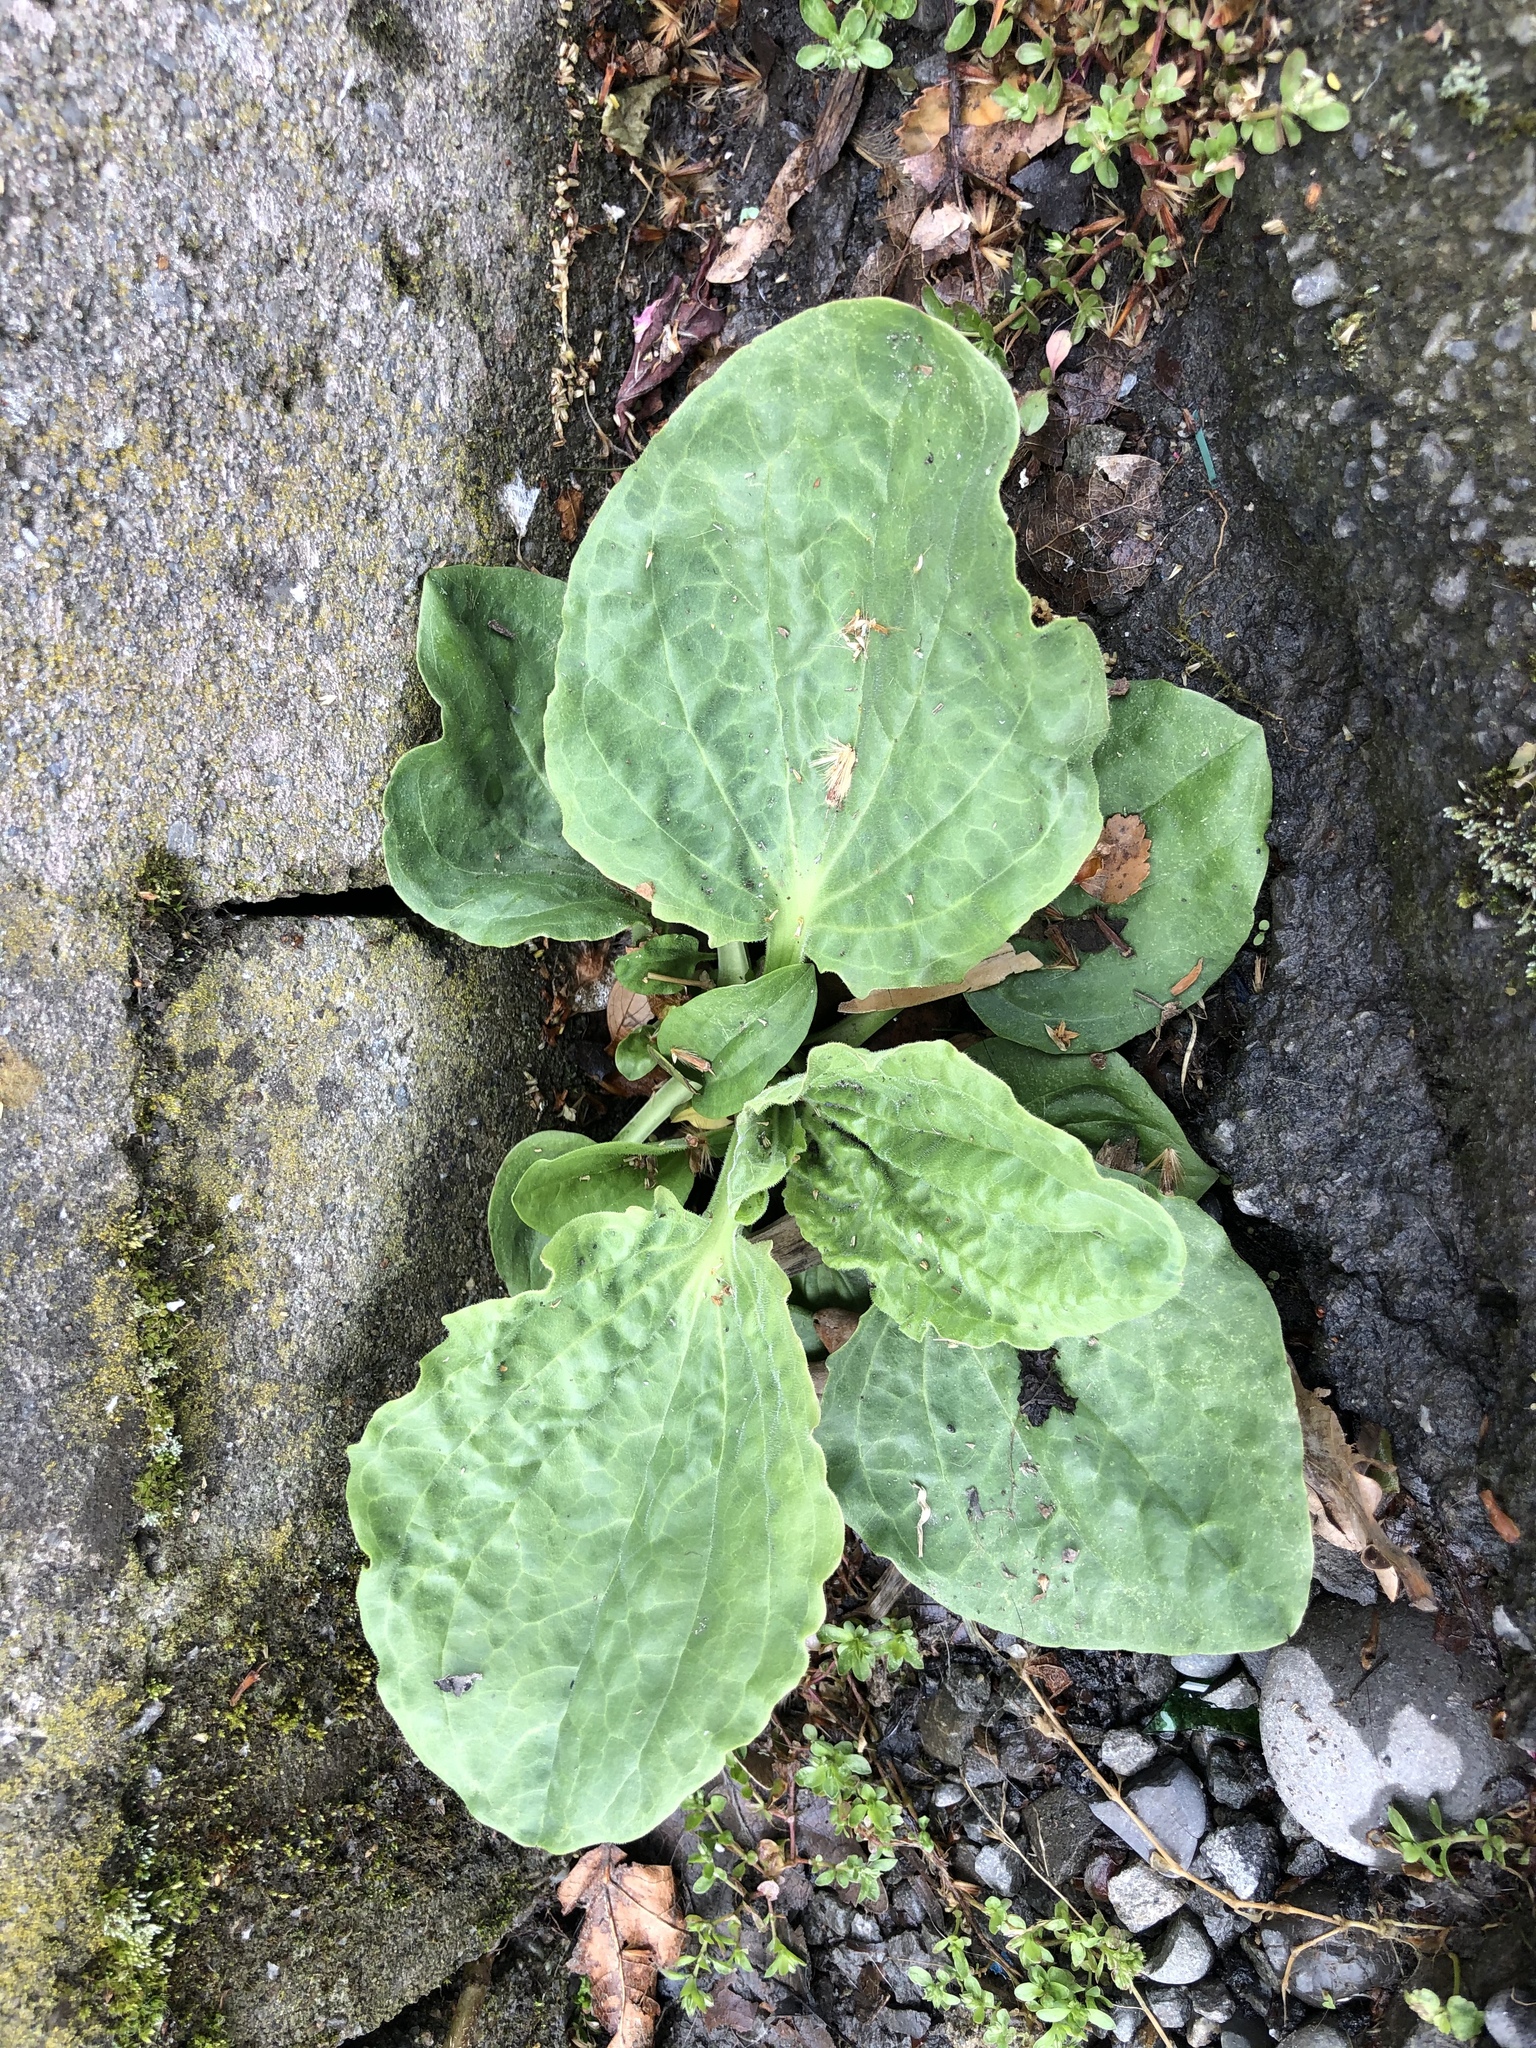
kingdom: Plantae
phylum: Tracheophyta
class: Magnoliopsida
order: Lamiales
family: Plantaginaceae
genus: Plantago
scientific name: Plantago major
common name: Common plantain
